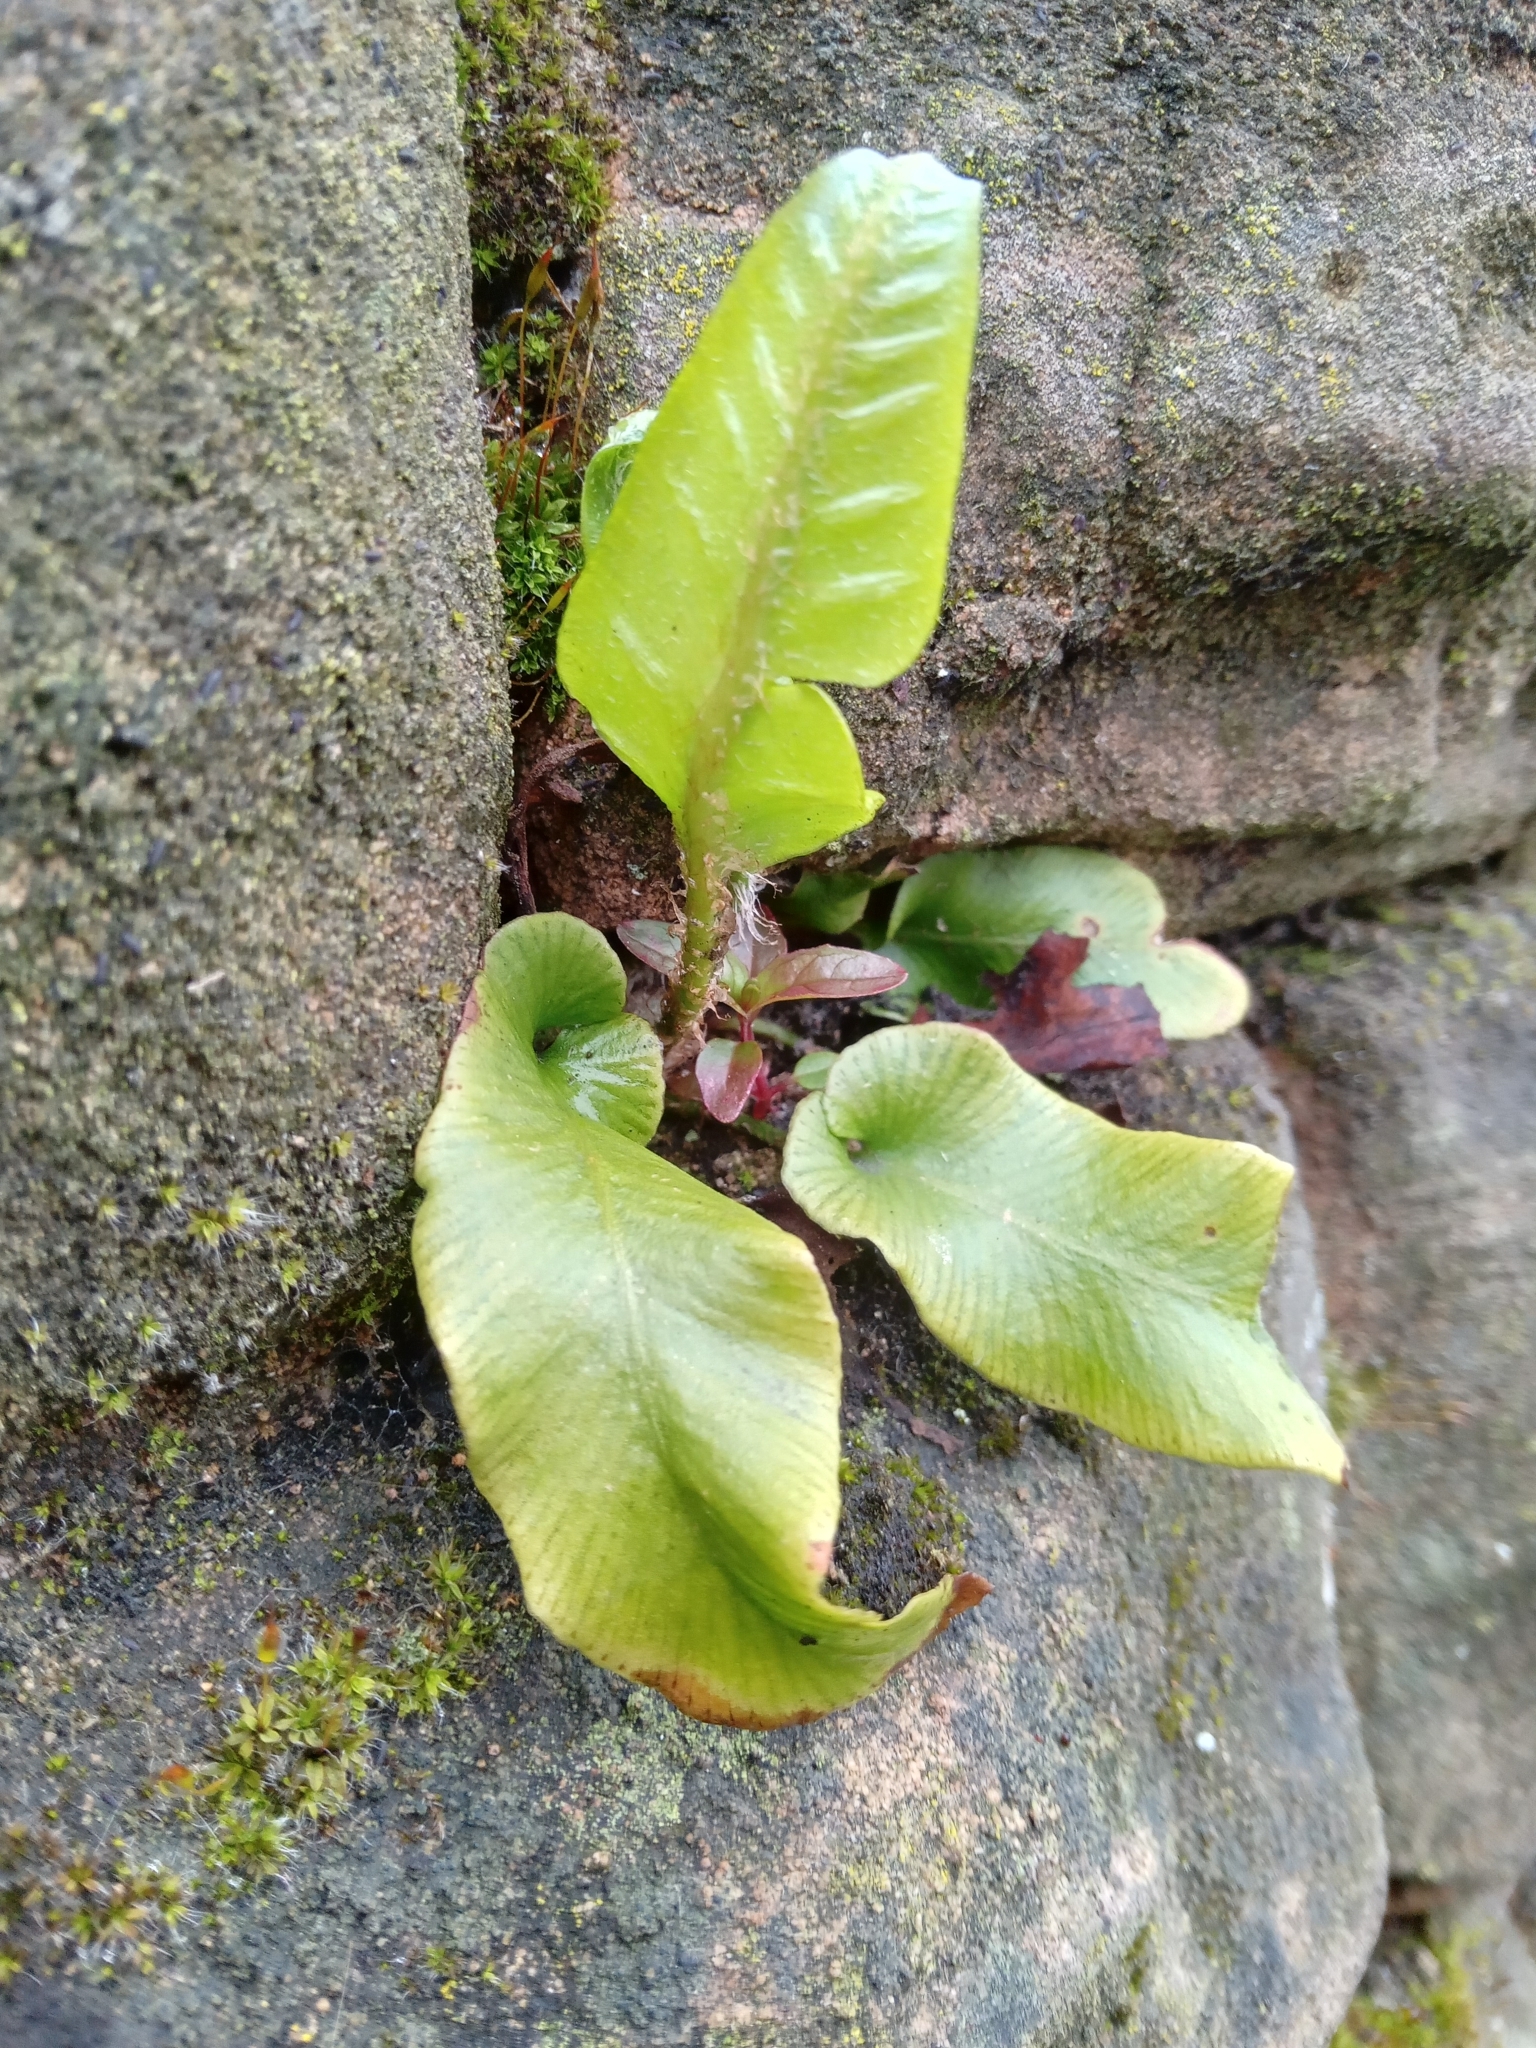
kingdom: Plantae
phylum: Tracheophyta
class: Polypodiopsida
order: Polypodiales
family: Aspleniaceae
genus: Asplenium
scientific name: Asplenium scolopendrium
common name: Hart's-tongue fern
